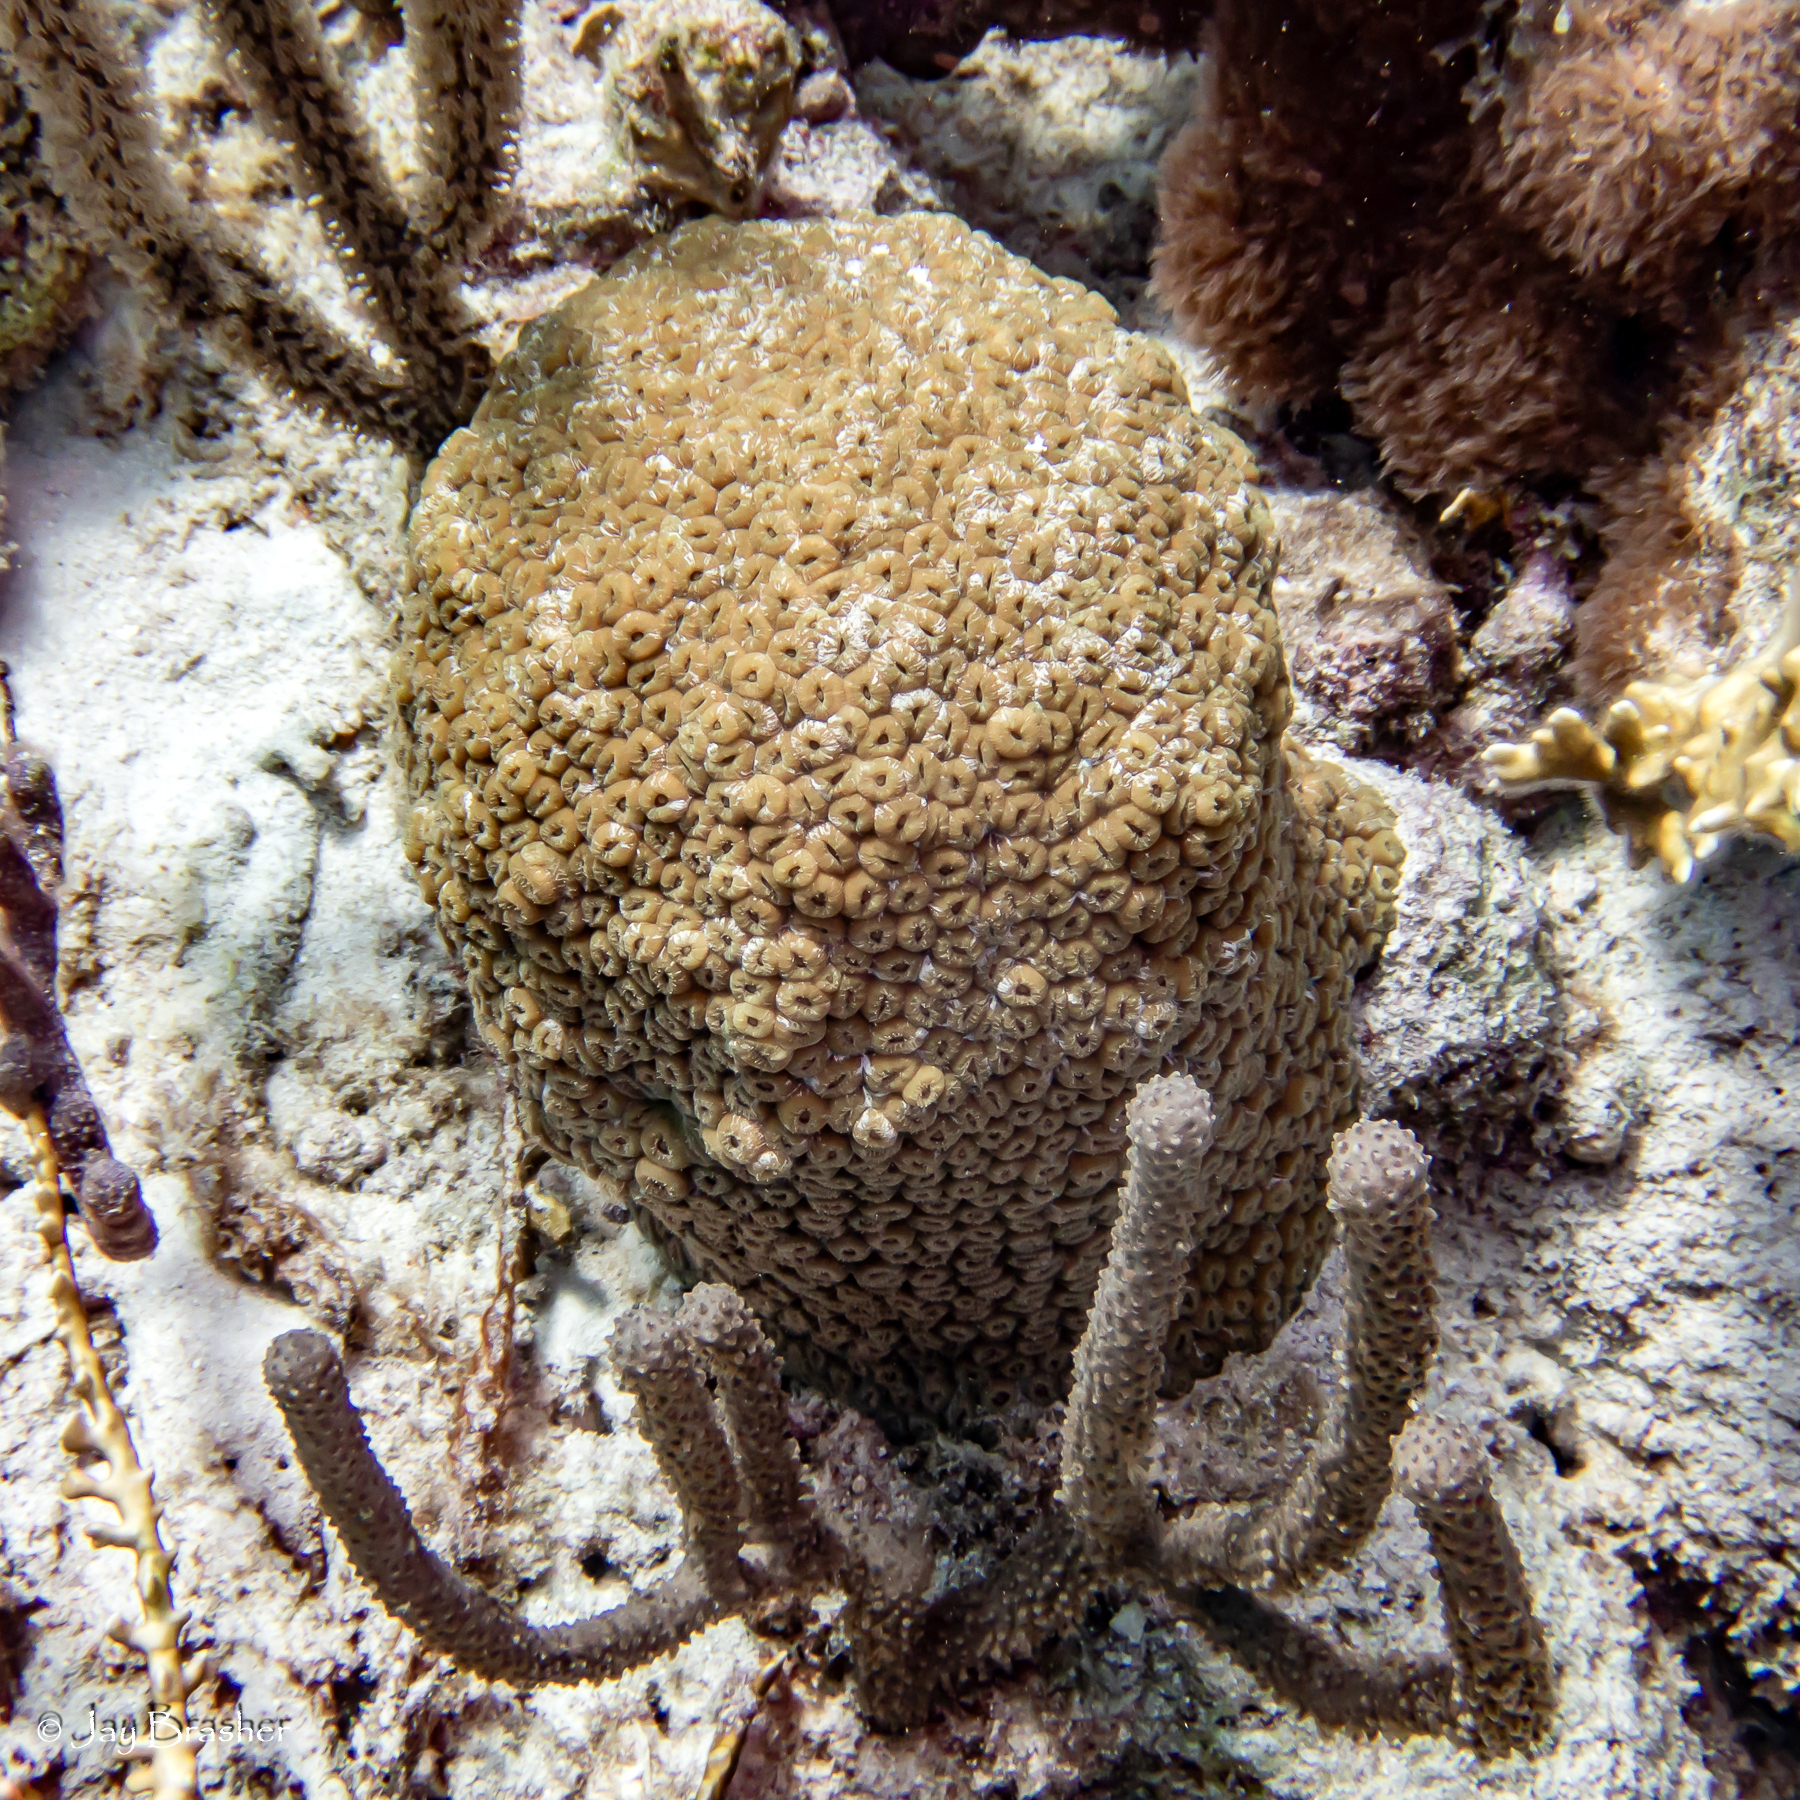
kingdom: Animalia
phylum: Cnidaria
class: Anthozoa
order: Scleractinia
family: Montastraeidae
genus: Montastraea
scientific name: Montastraea cavernosa
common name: Great star coral
